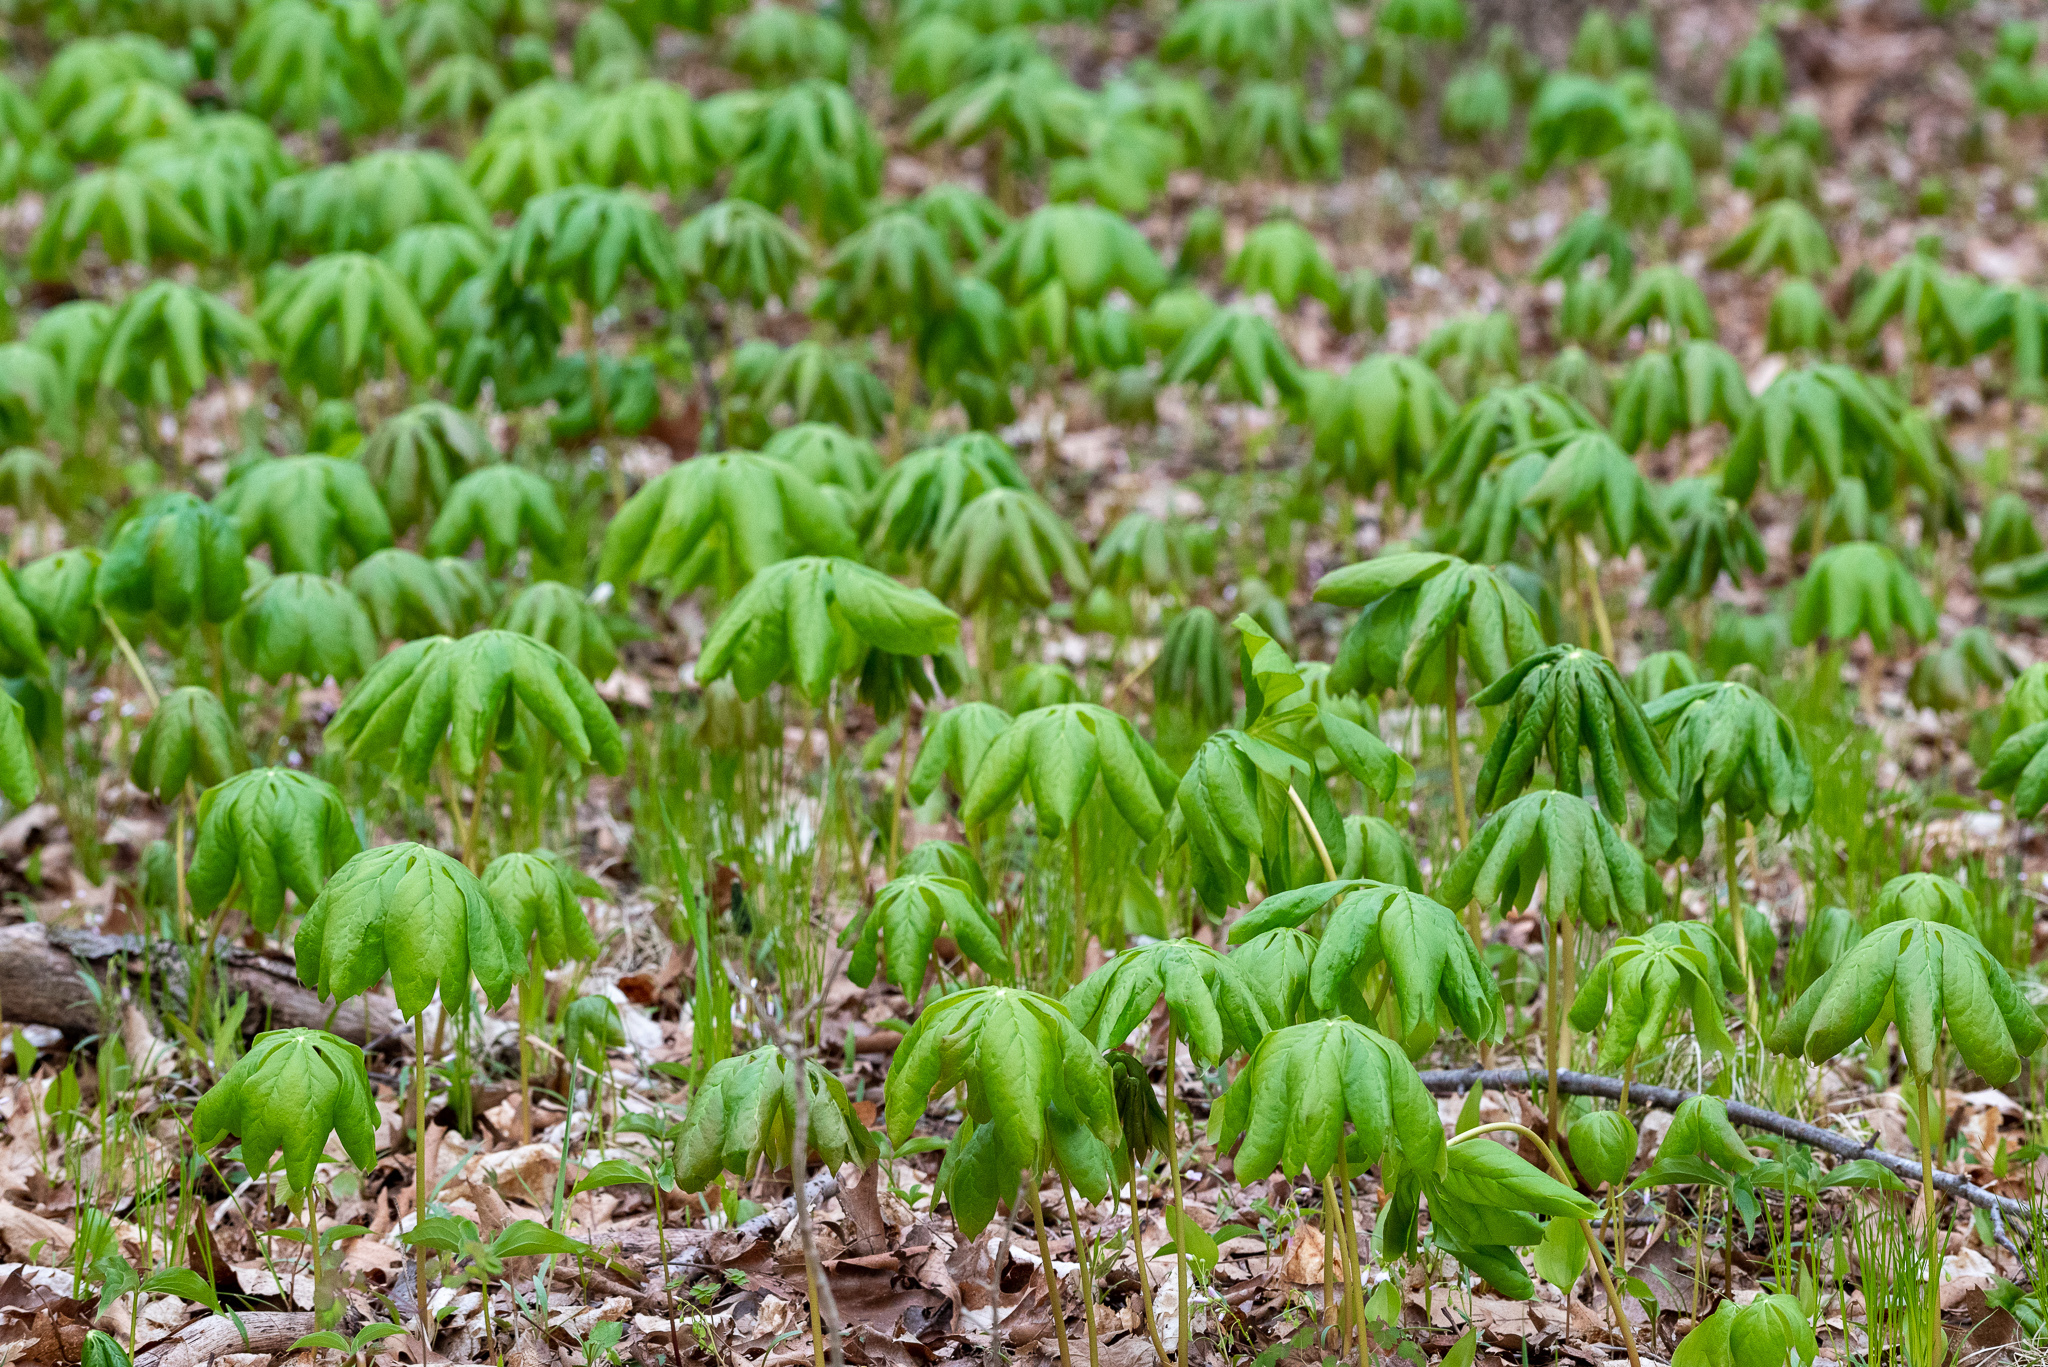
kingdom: Plantae
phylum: Tracheophyta
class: Magnoliopsida
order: Ranunculales
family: Berberidaceae
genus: Podophyllum
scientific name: Podophyllum peltatum
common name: Wild mandrake
